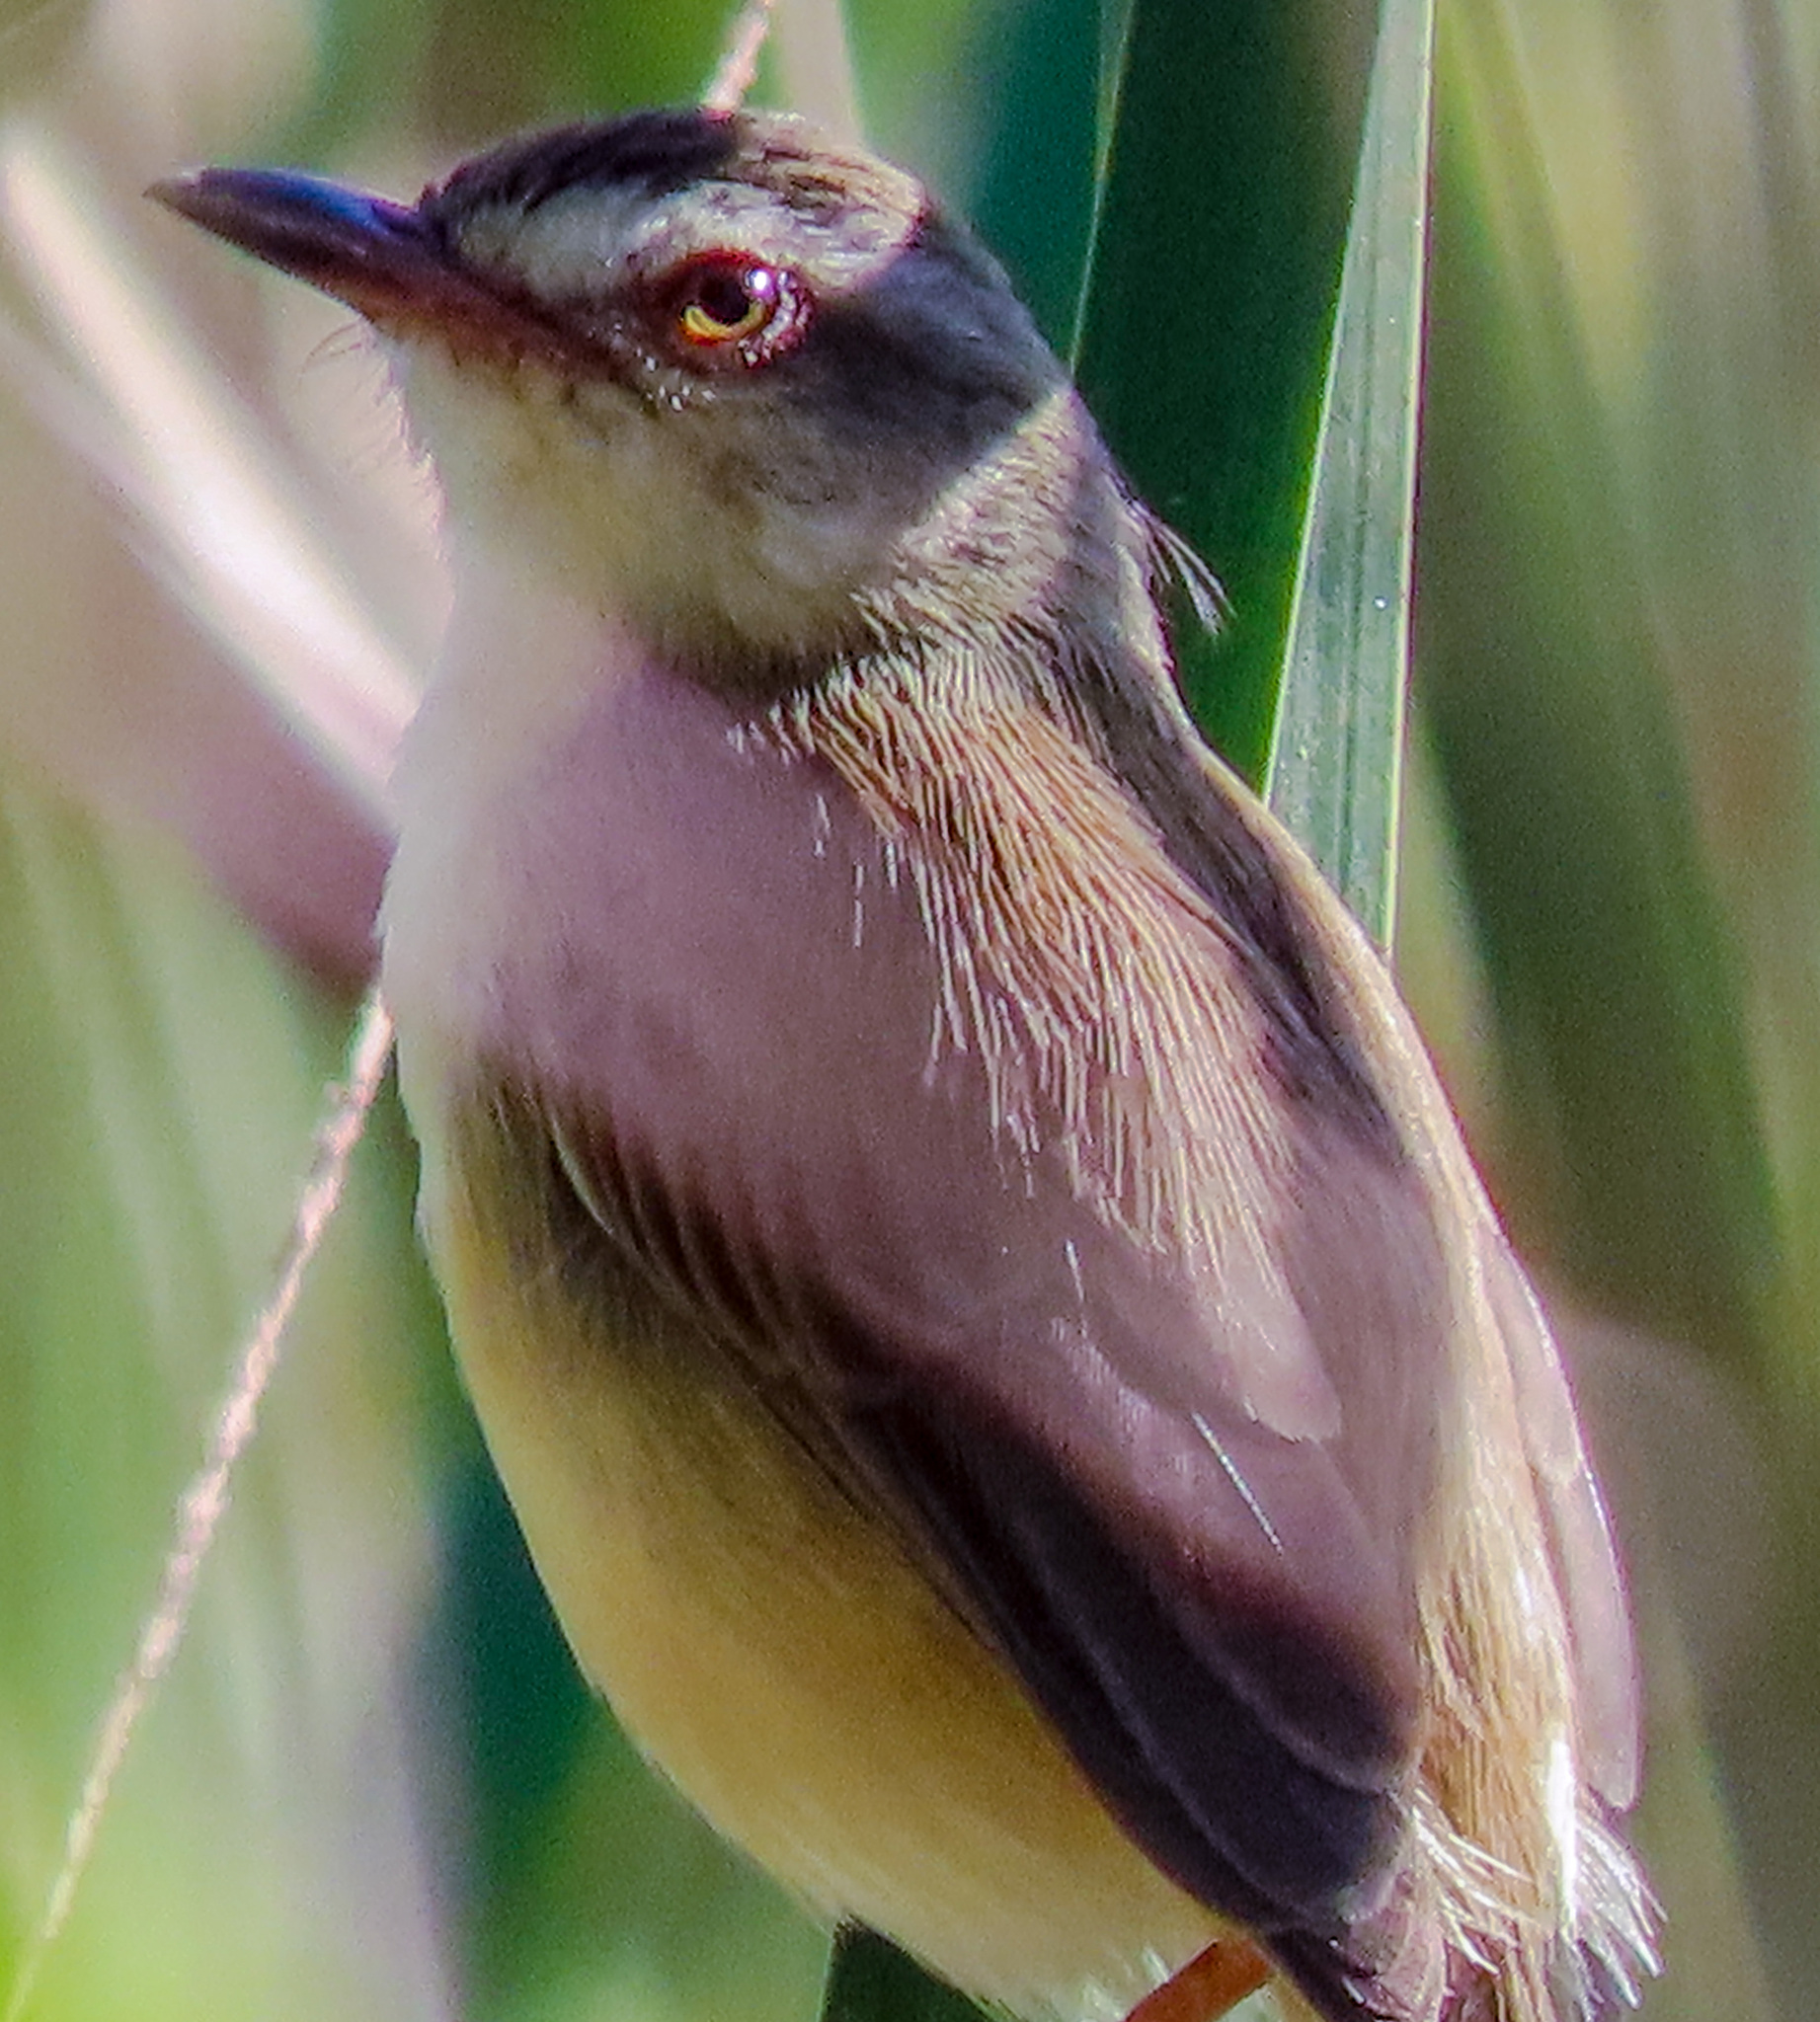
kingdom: Animalia
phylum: Chordata
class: Aves
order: Passeriformes
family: Cisticolidae
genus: Prinia
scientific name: Prinia inornata
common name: Plain prinia
